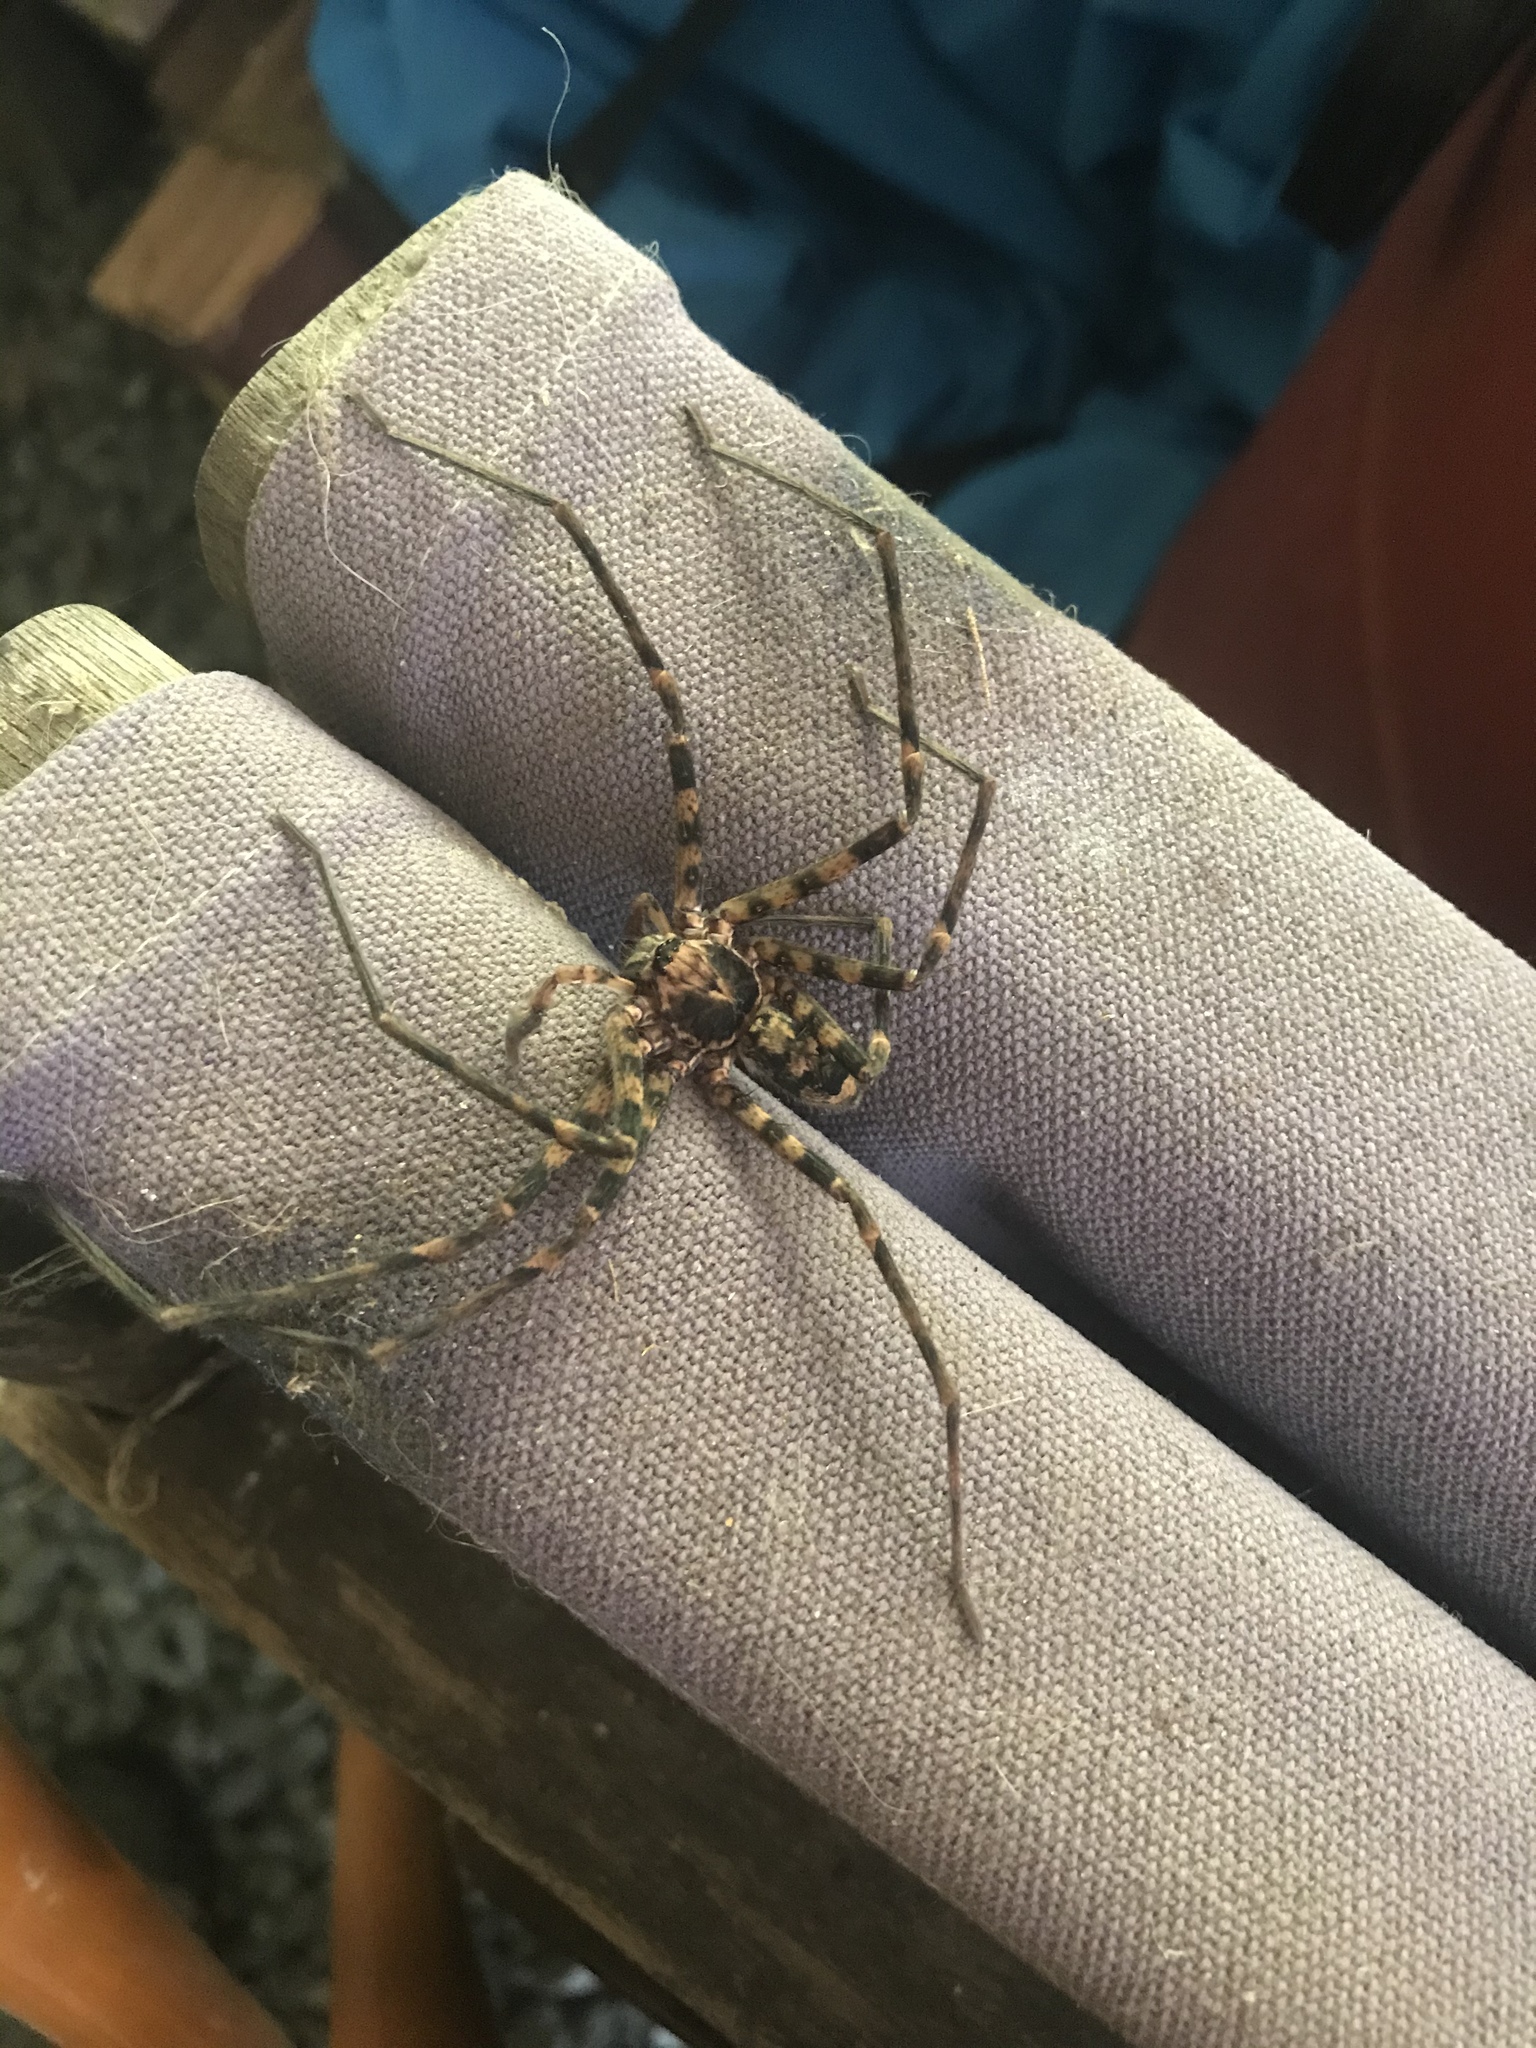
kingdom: Animalia
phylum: Arthropoda
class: Arachnida
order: Araneae
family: Sparassidae
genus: Heteropoda
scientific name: Heteropoda binnaburra
